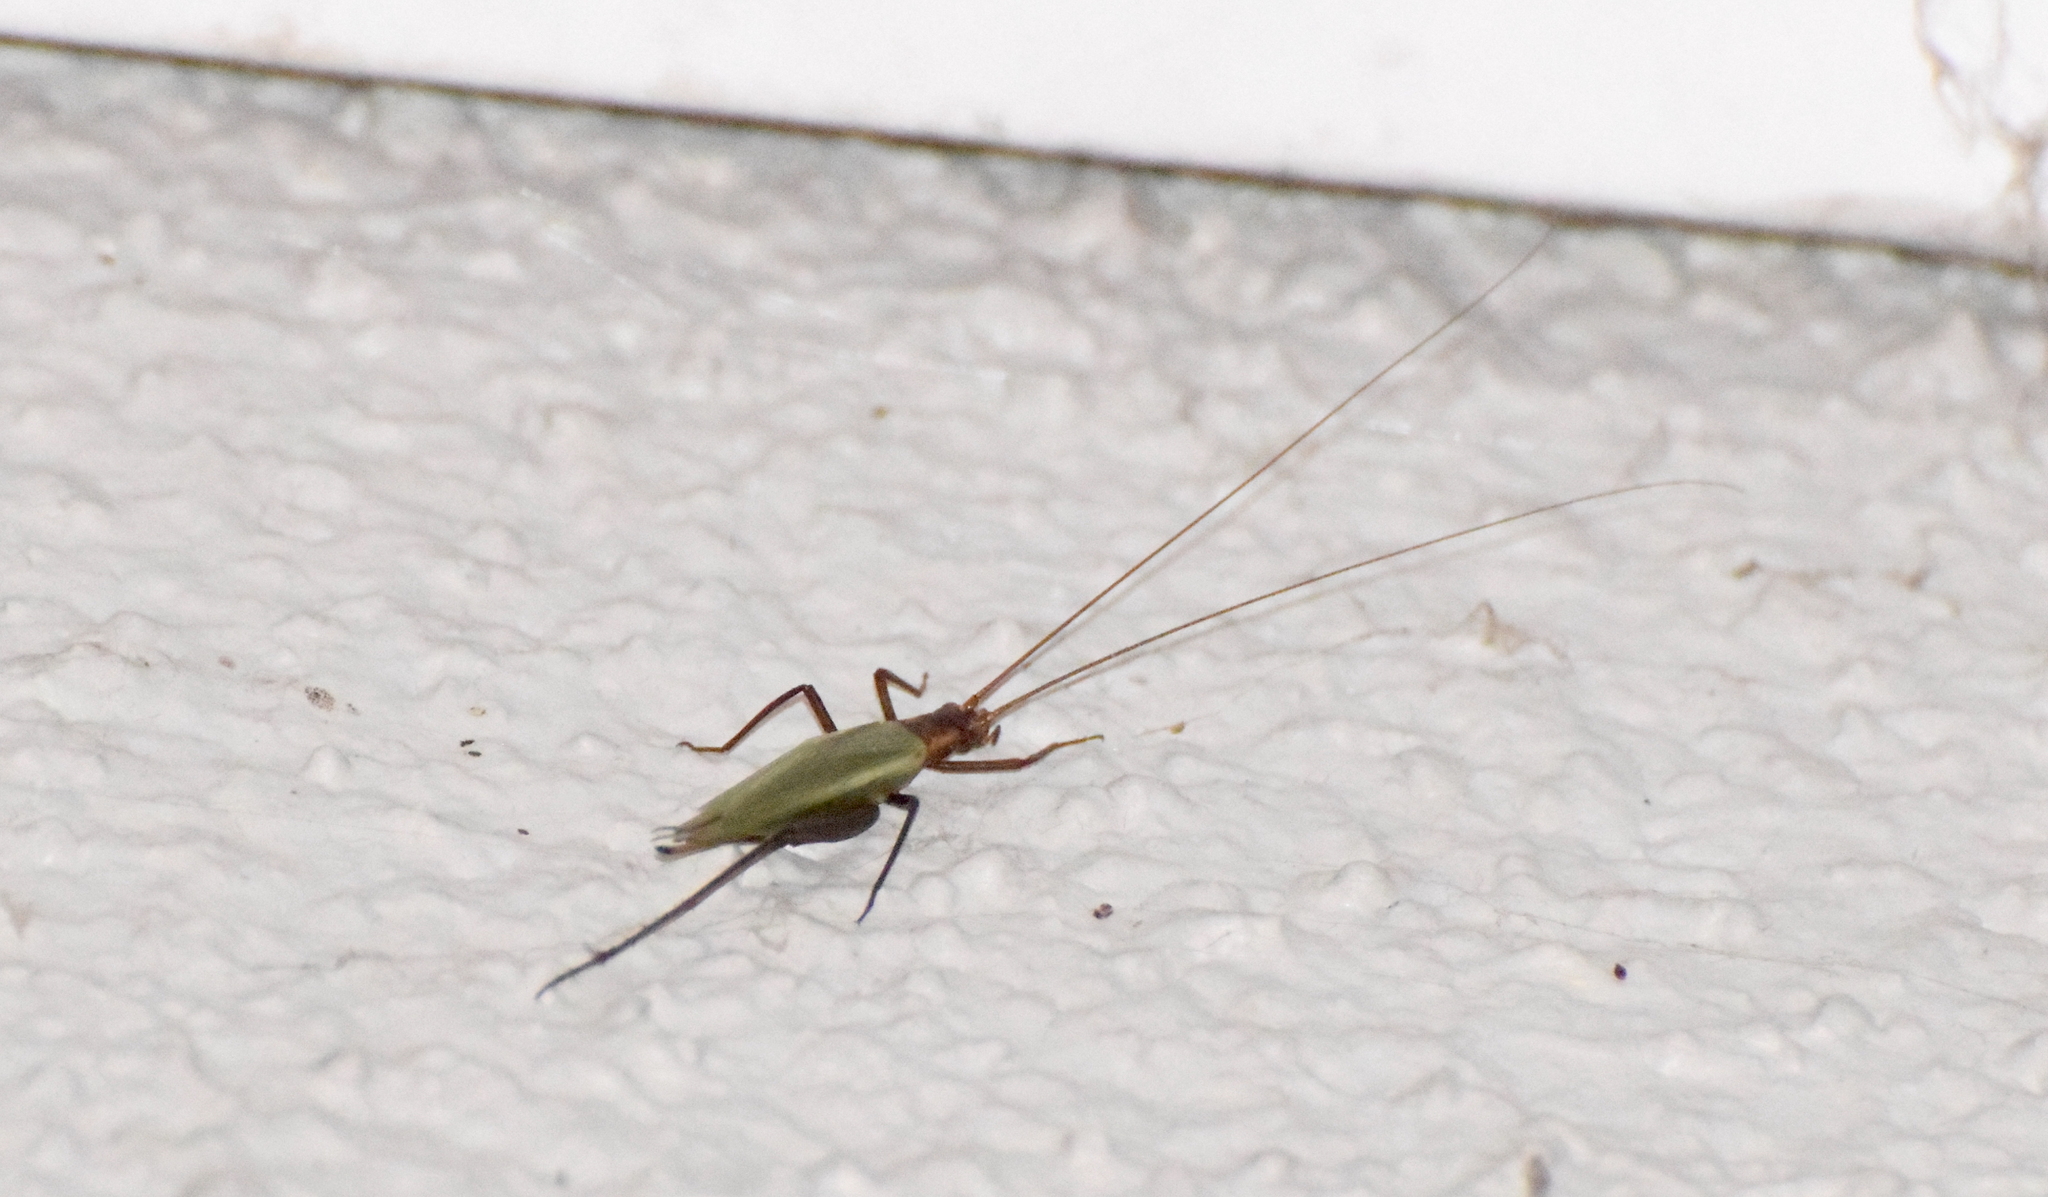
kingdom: Animalia
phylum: Arthropoda
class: Insecta
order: Orthoptera
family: Gryllidae
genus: Oecanthus
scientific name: Oecanthus pini
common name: Pine tree cricket
